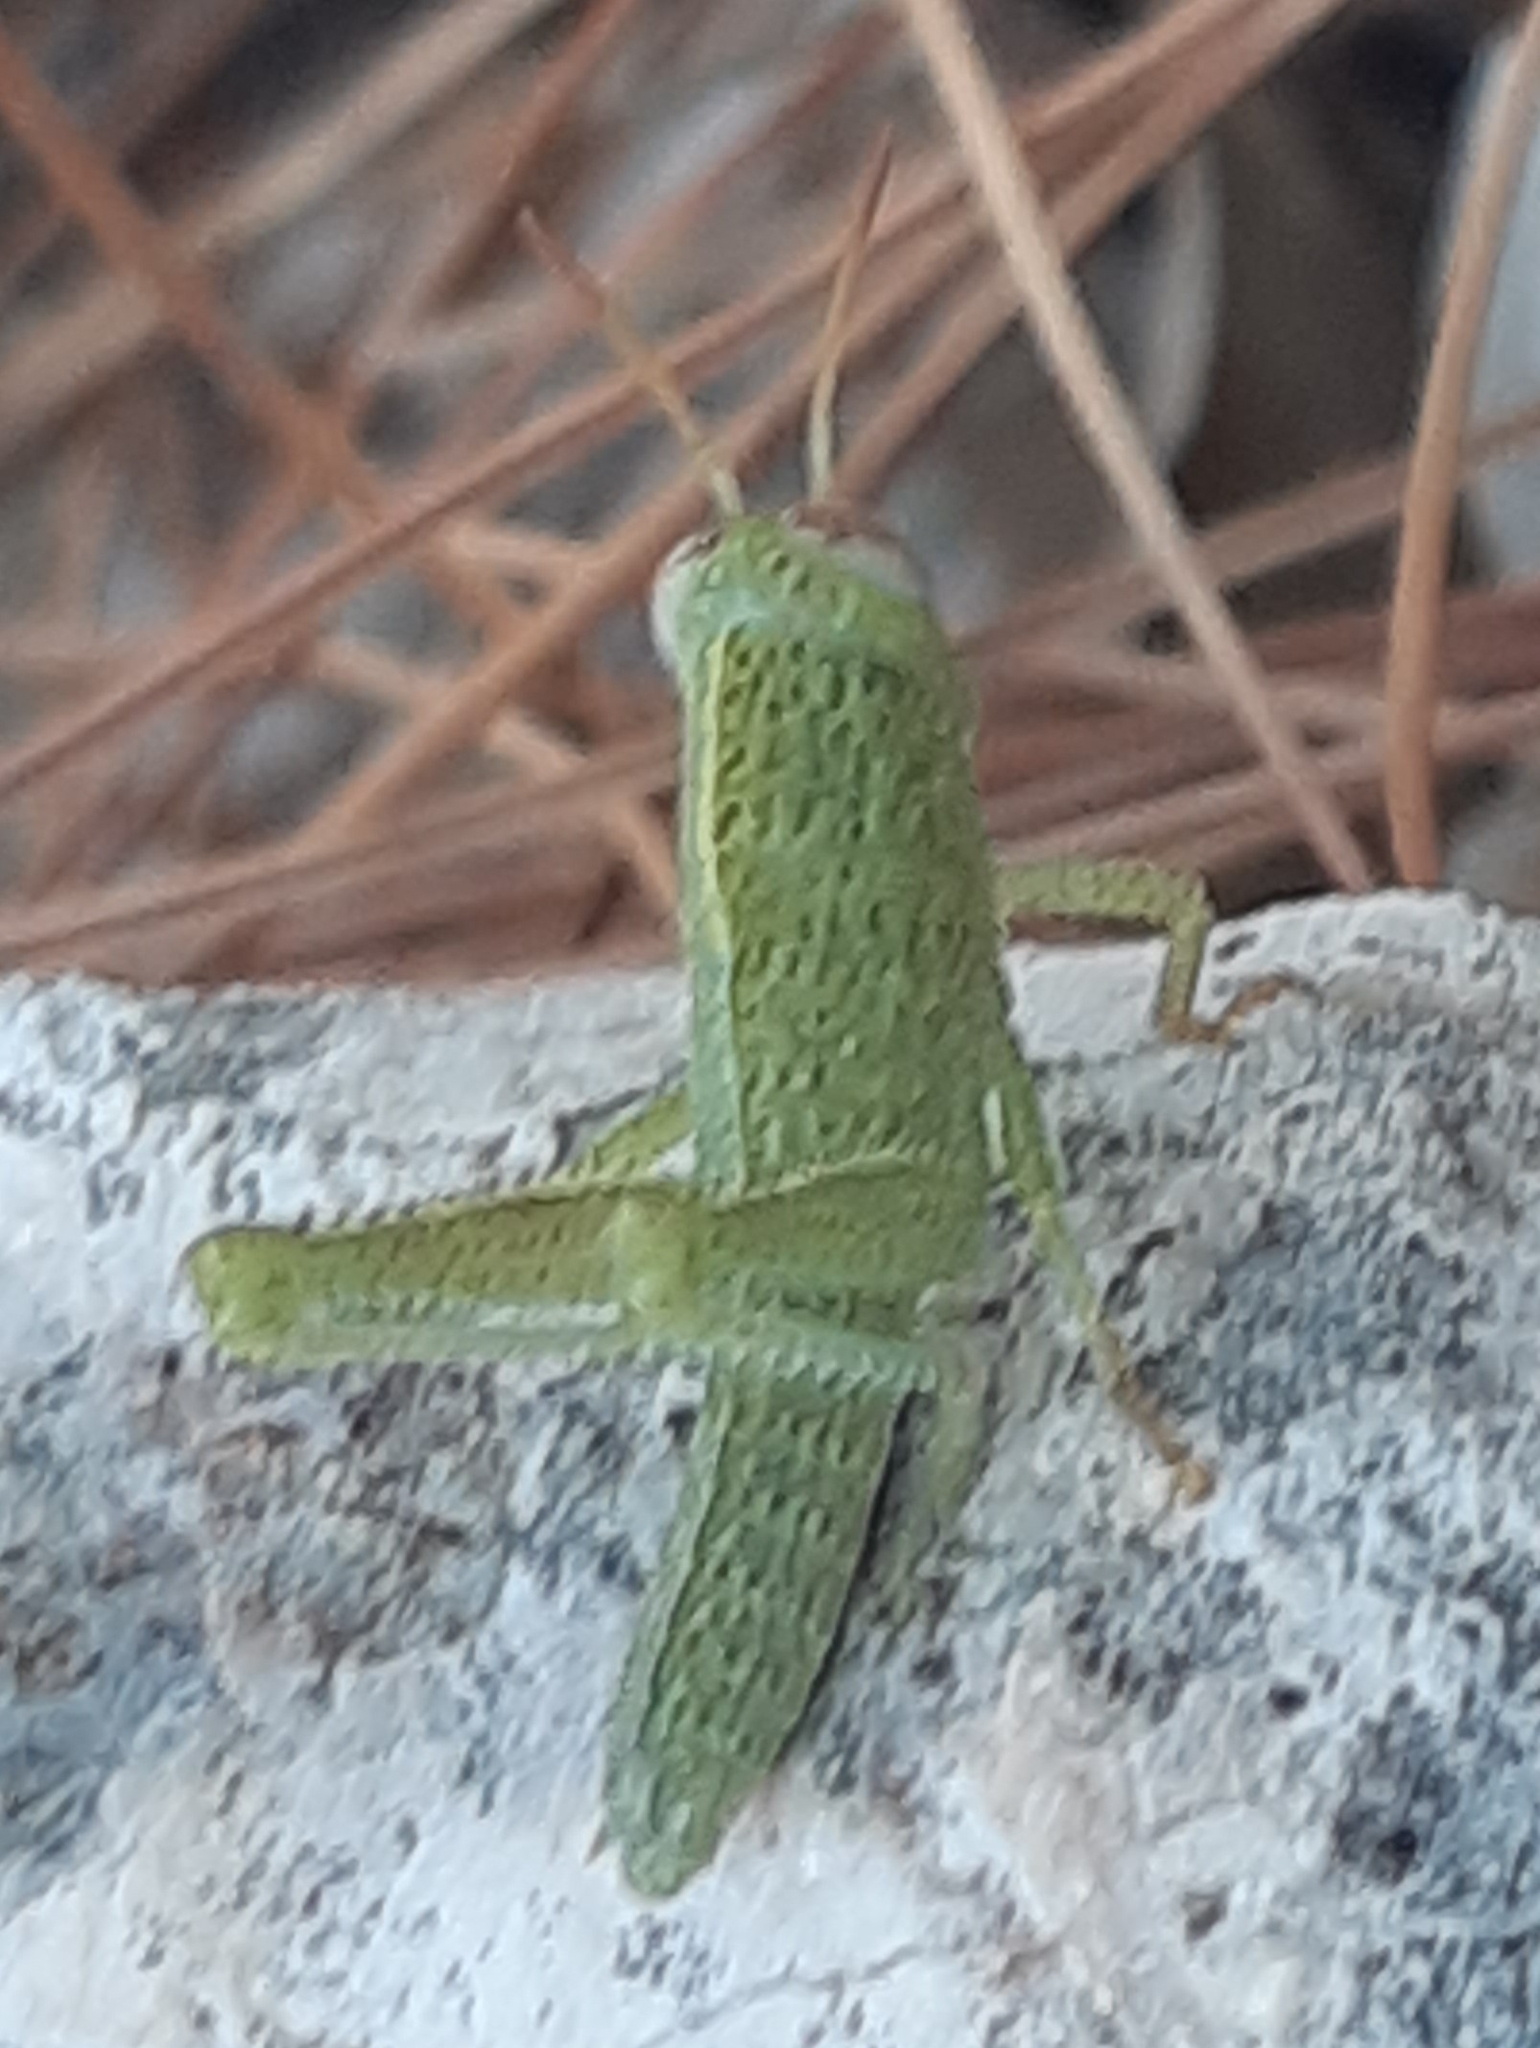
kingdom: Animalia
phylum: Arthropoda
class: Insecta
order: Orthoptera
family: Acrididae
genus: Anacridium
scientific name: Anacridium aegyptium
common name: Egyptian grasshopper
